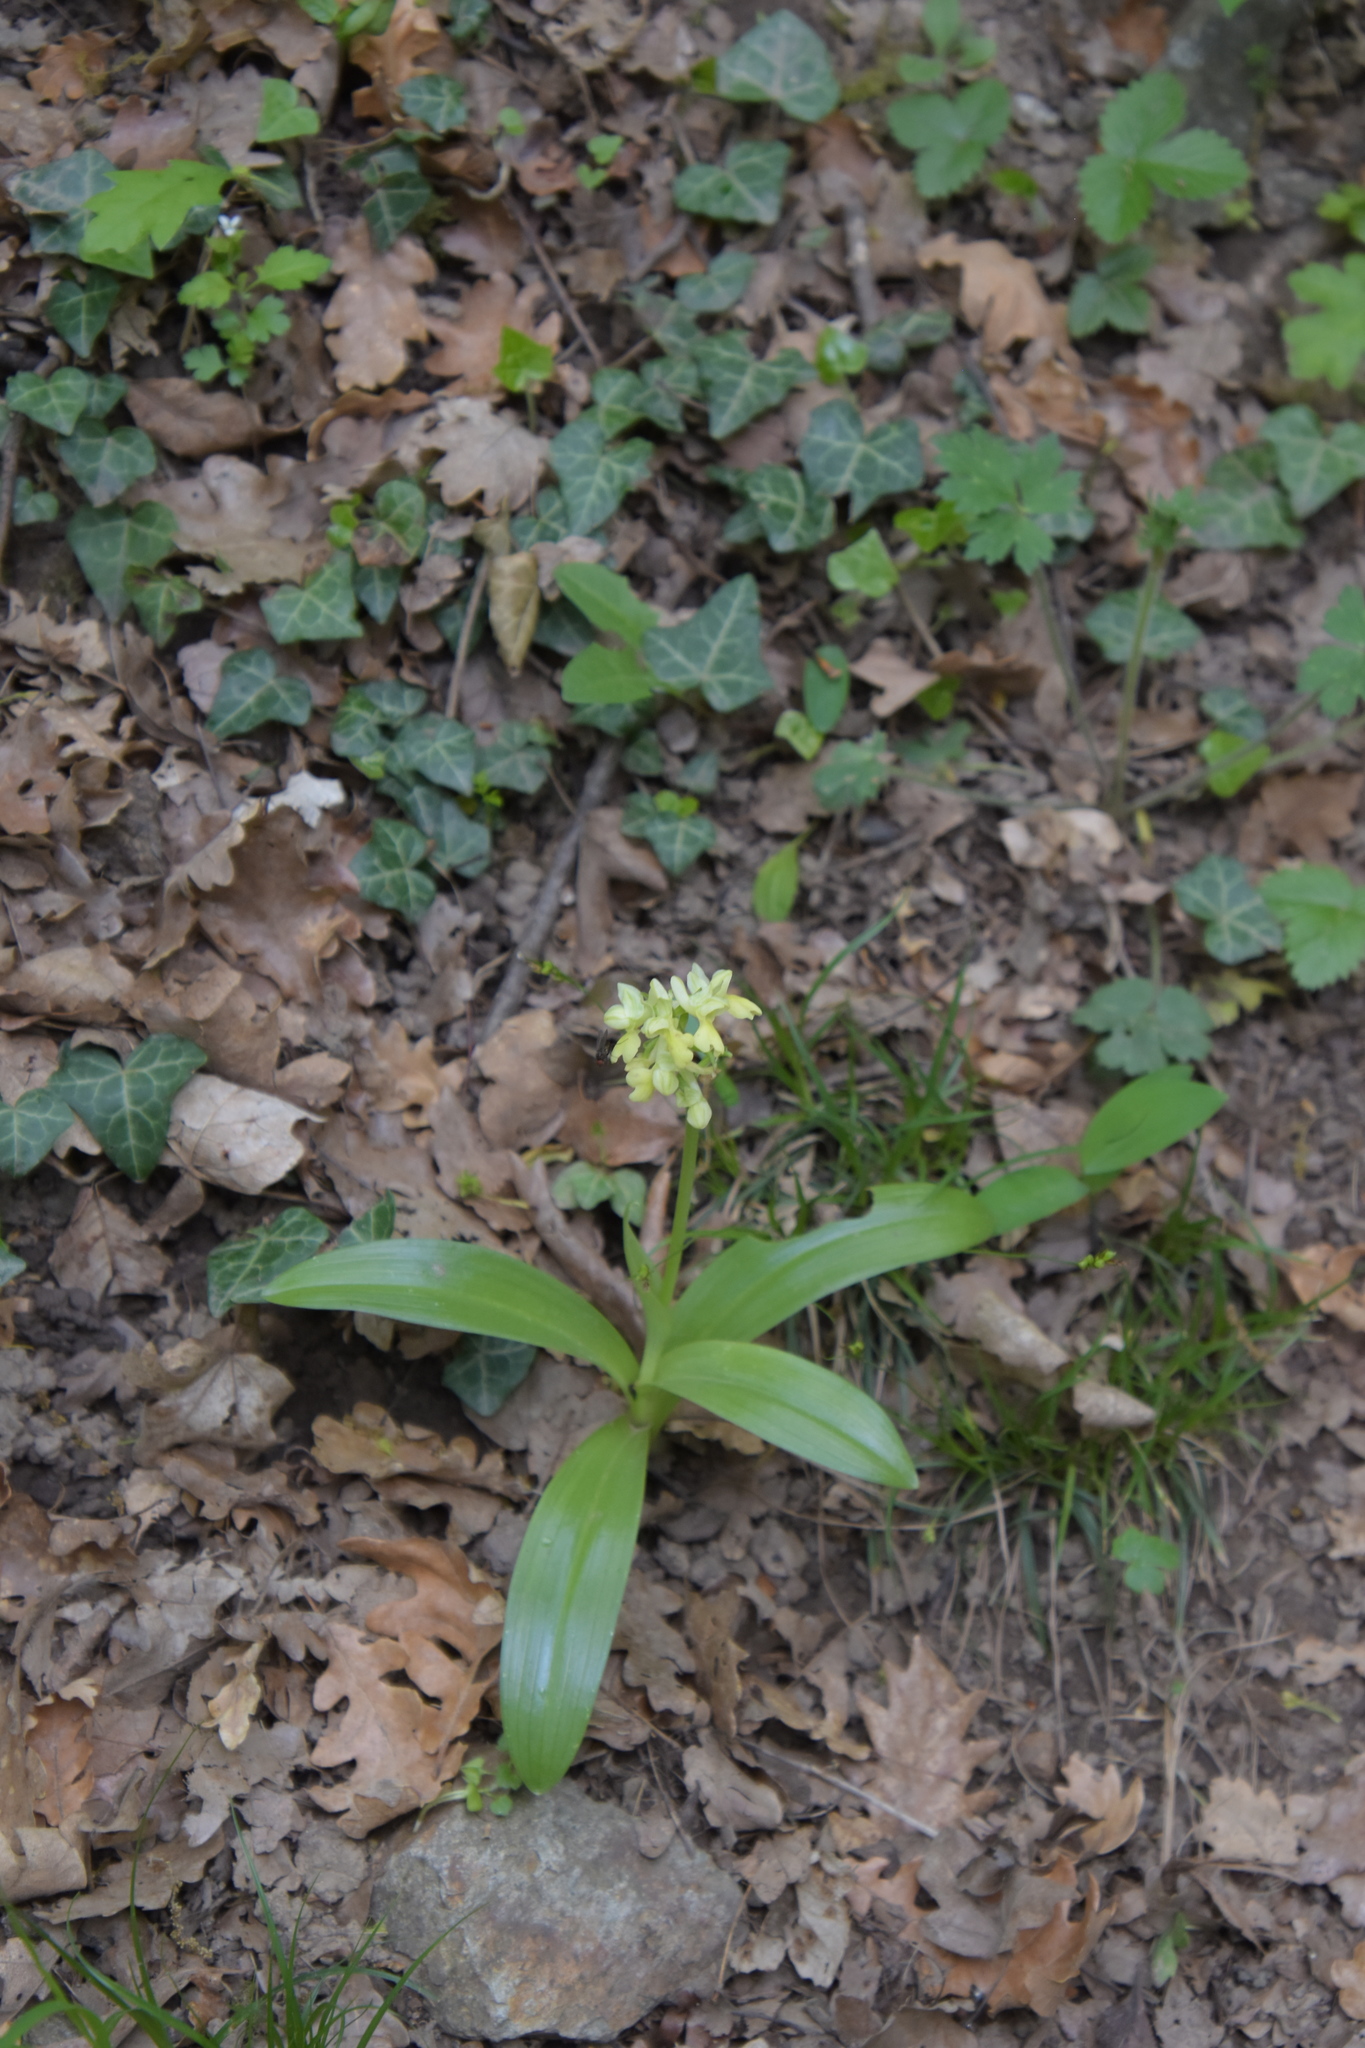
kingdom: Plantae
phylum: Tracheophyta
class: Liliopsida
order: Asparagales
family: Orchidaceae
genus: Orchis
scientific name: Orchis pallens
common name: Pale-flowered orchid
